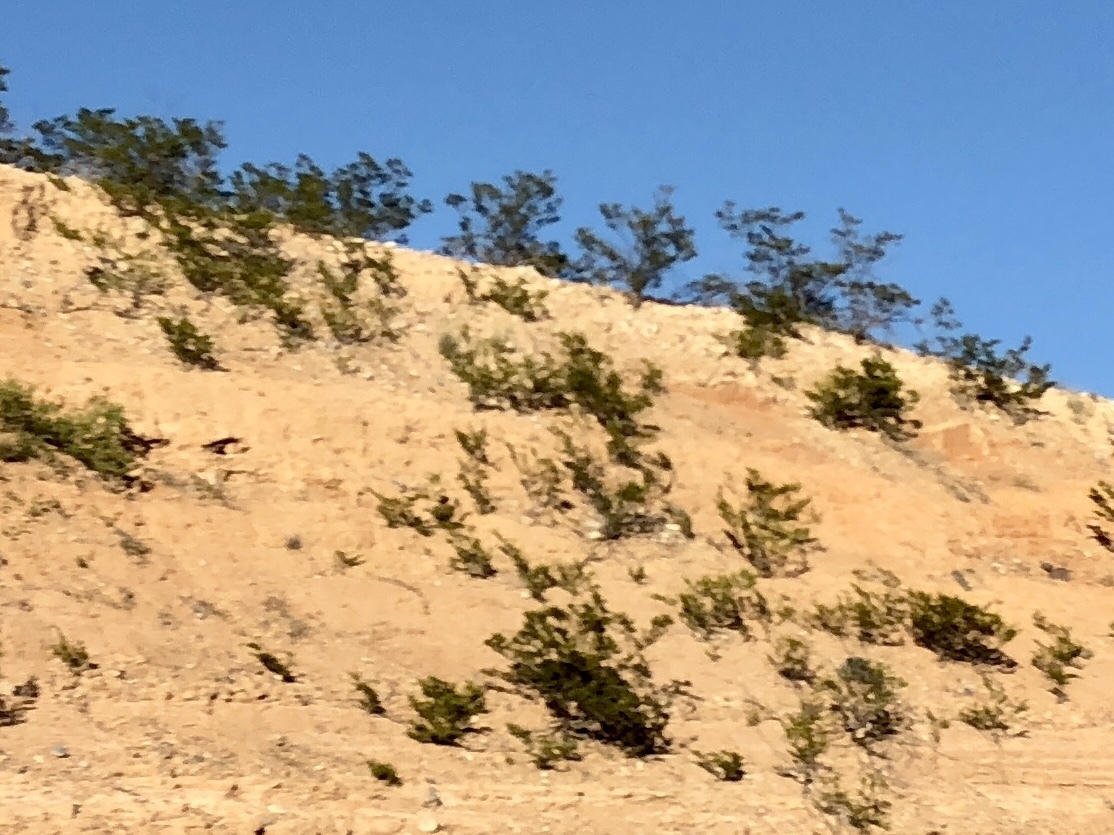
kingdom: Plantae
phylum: Tracheophyta
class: Magnoliopsida
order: Zygophyllales
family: Zygophyllaceae
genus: Larrea
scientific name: Larrea tridentata
